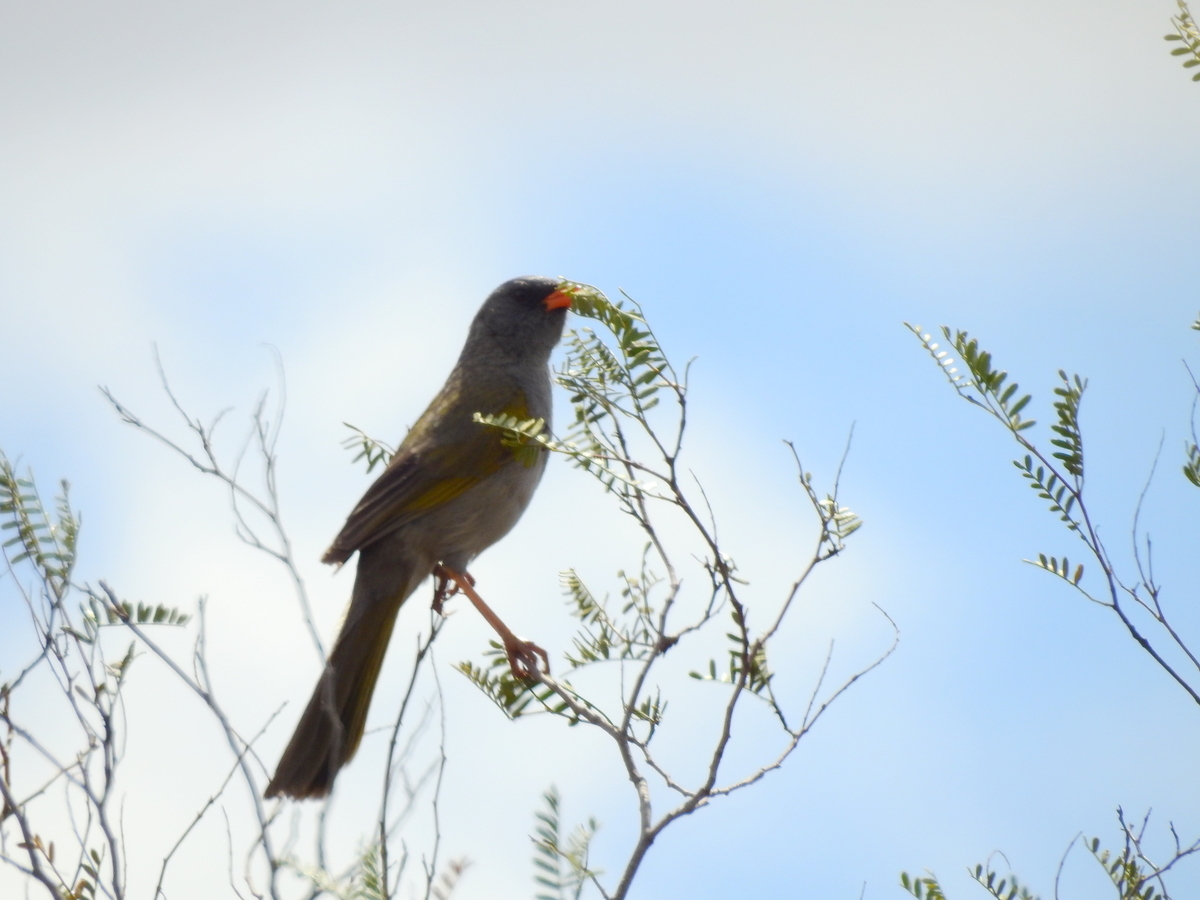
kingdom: Animalia
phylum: Chordata
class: Aves
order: Passeriformes
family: Thraupidae
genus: Embernagra
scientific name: Embernagra platensis
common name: Pampa finch
